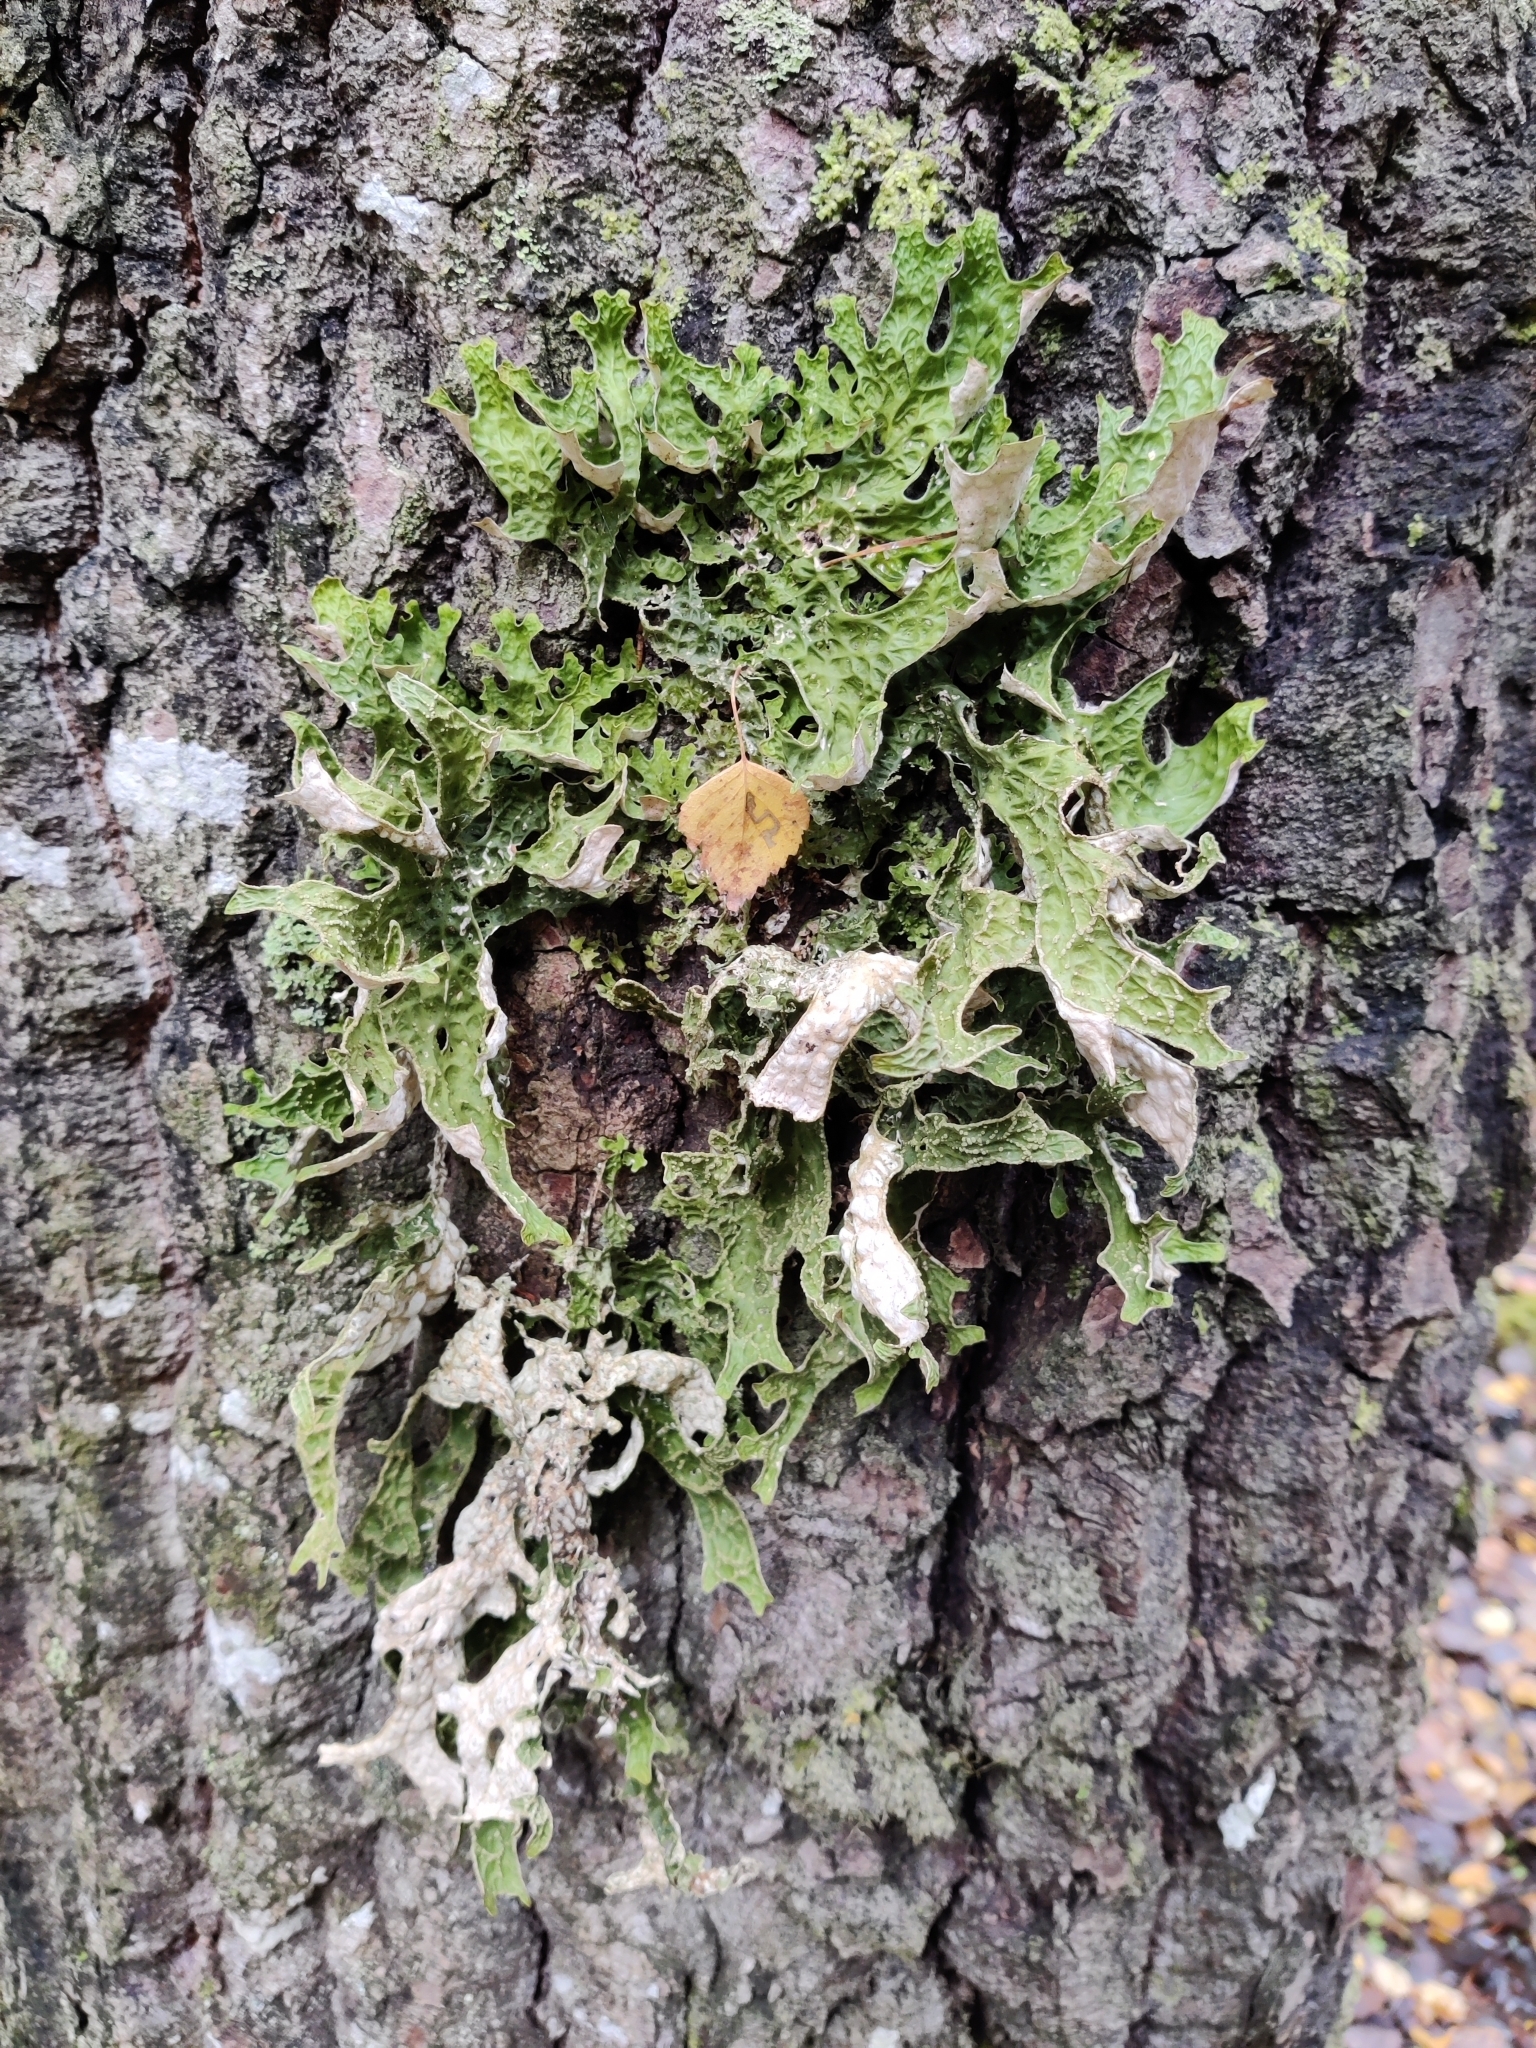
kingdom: Fungi
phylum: Ascomycota
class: Lecanoromycetes
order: Peltigerales
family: Lobariaceae
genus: Lobaria
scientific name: Lobaria pulmonaria
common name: Lungwort
